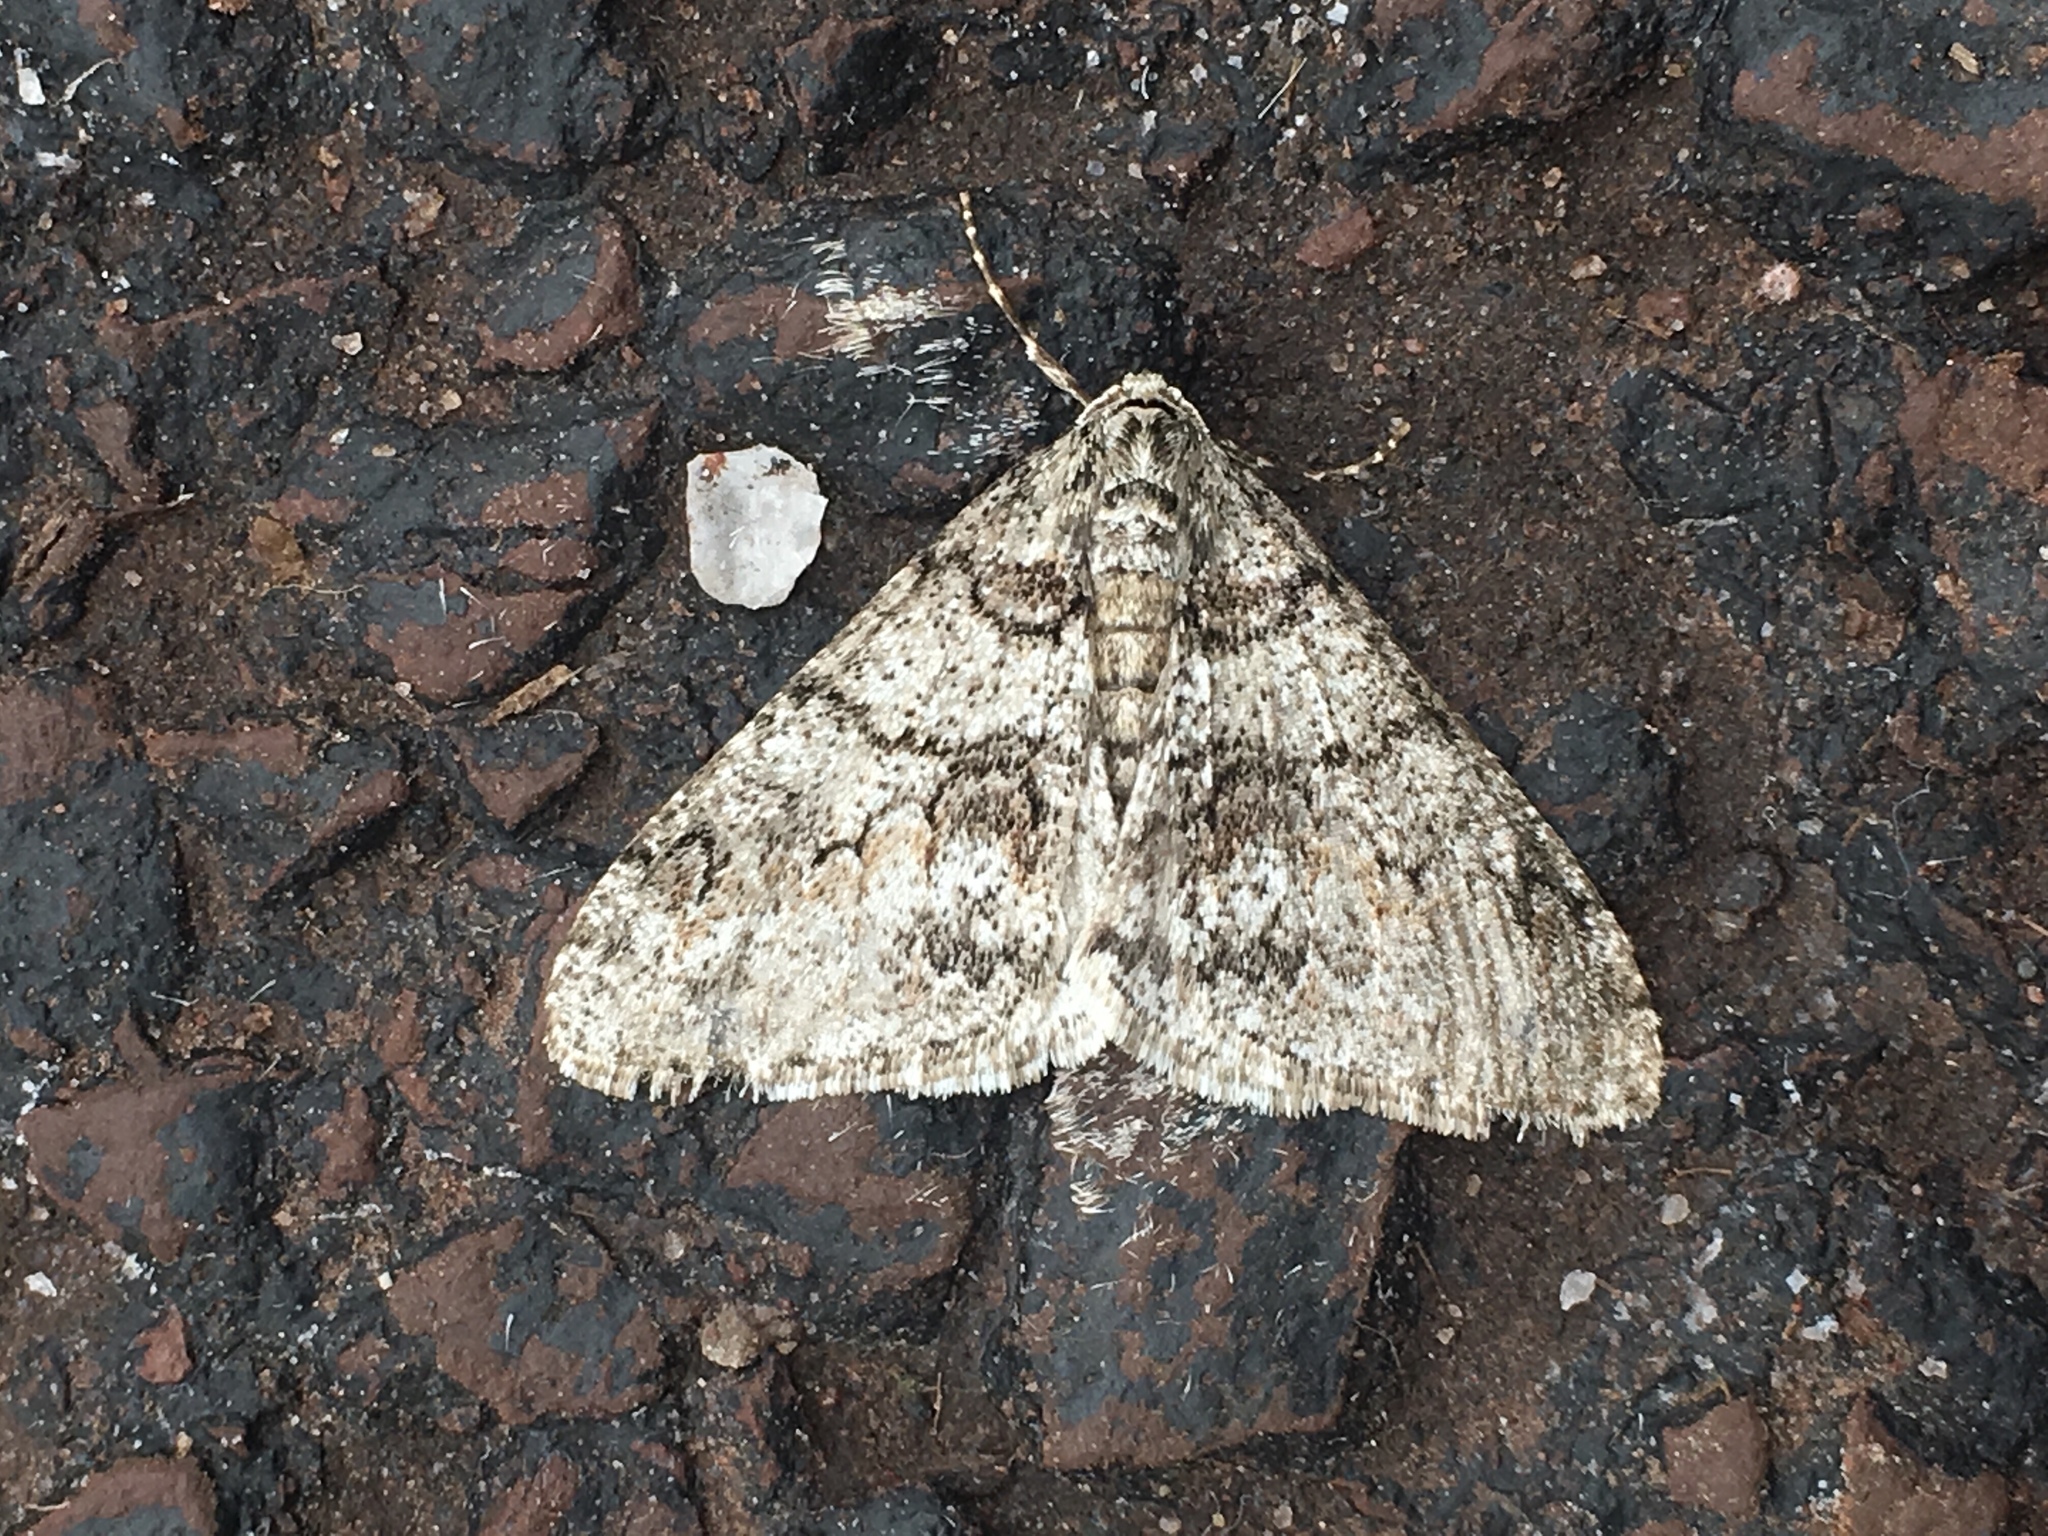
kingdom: Animalia
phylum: Arthropoda
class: Insecta
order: Lepidoptera
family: Geometridae
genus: Phigalia
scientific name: Phigalia denticulata
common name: Toothed phigalia
